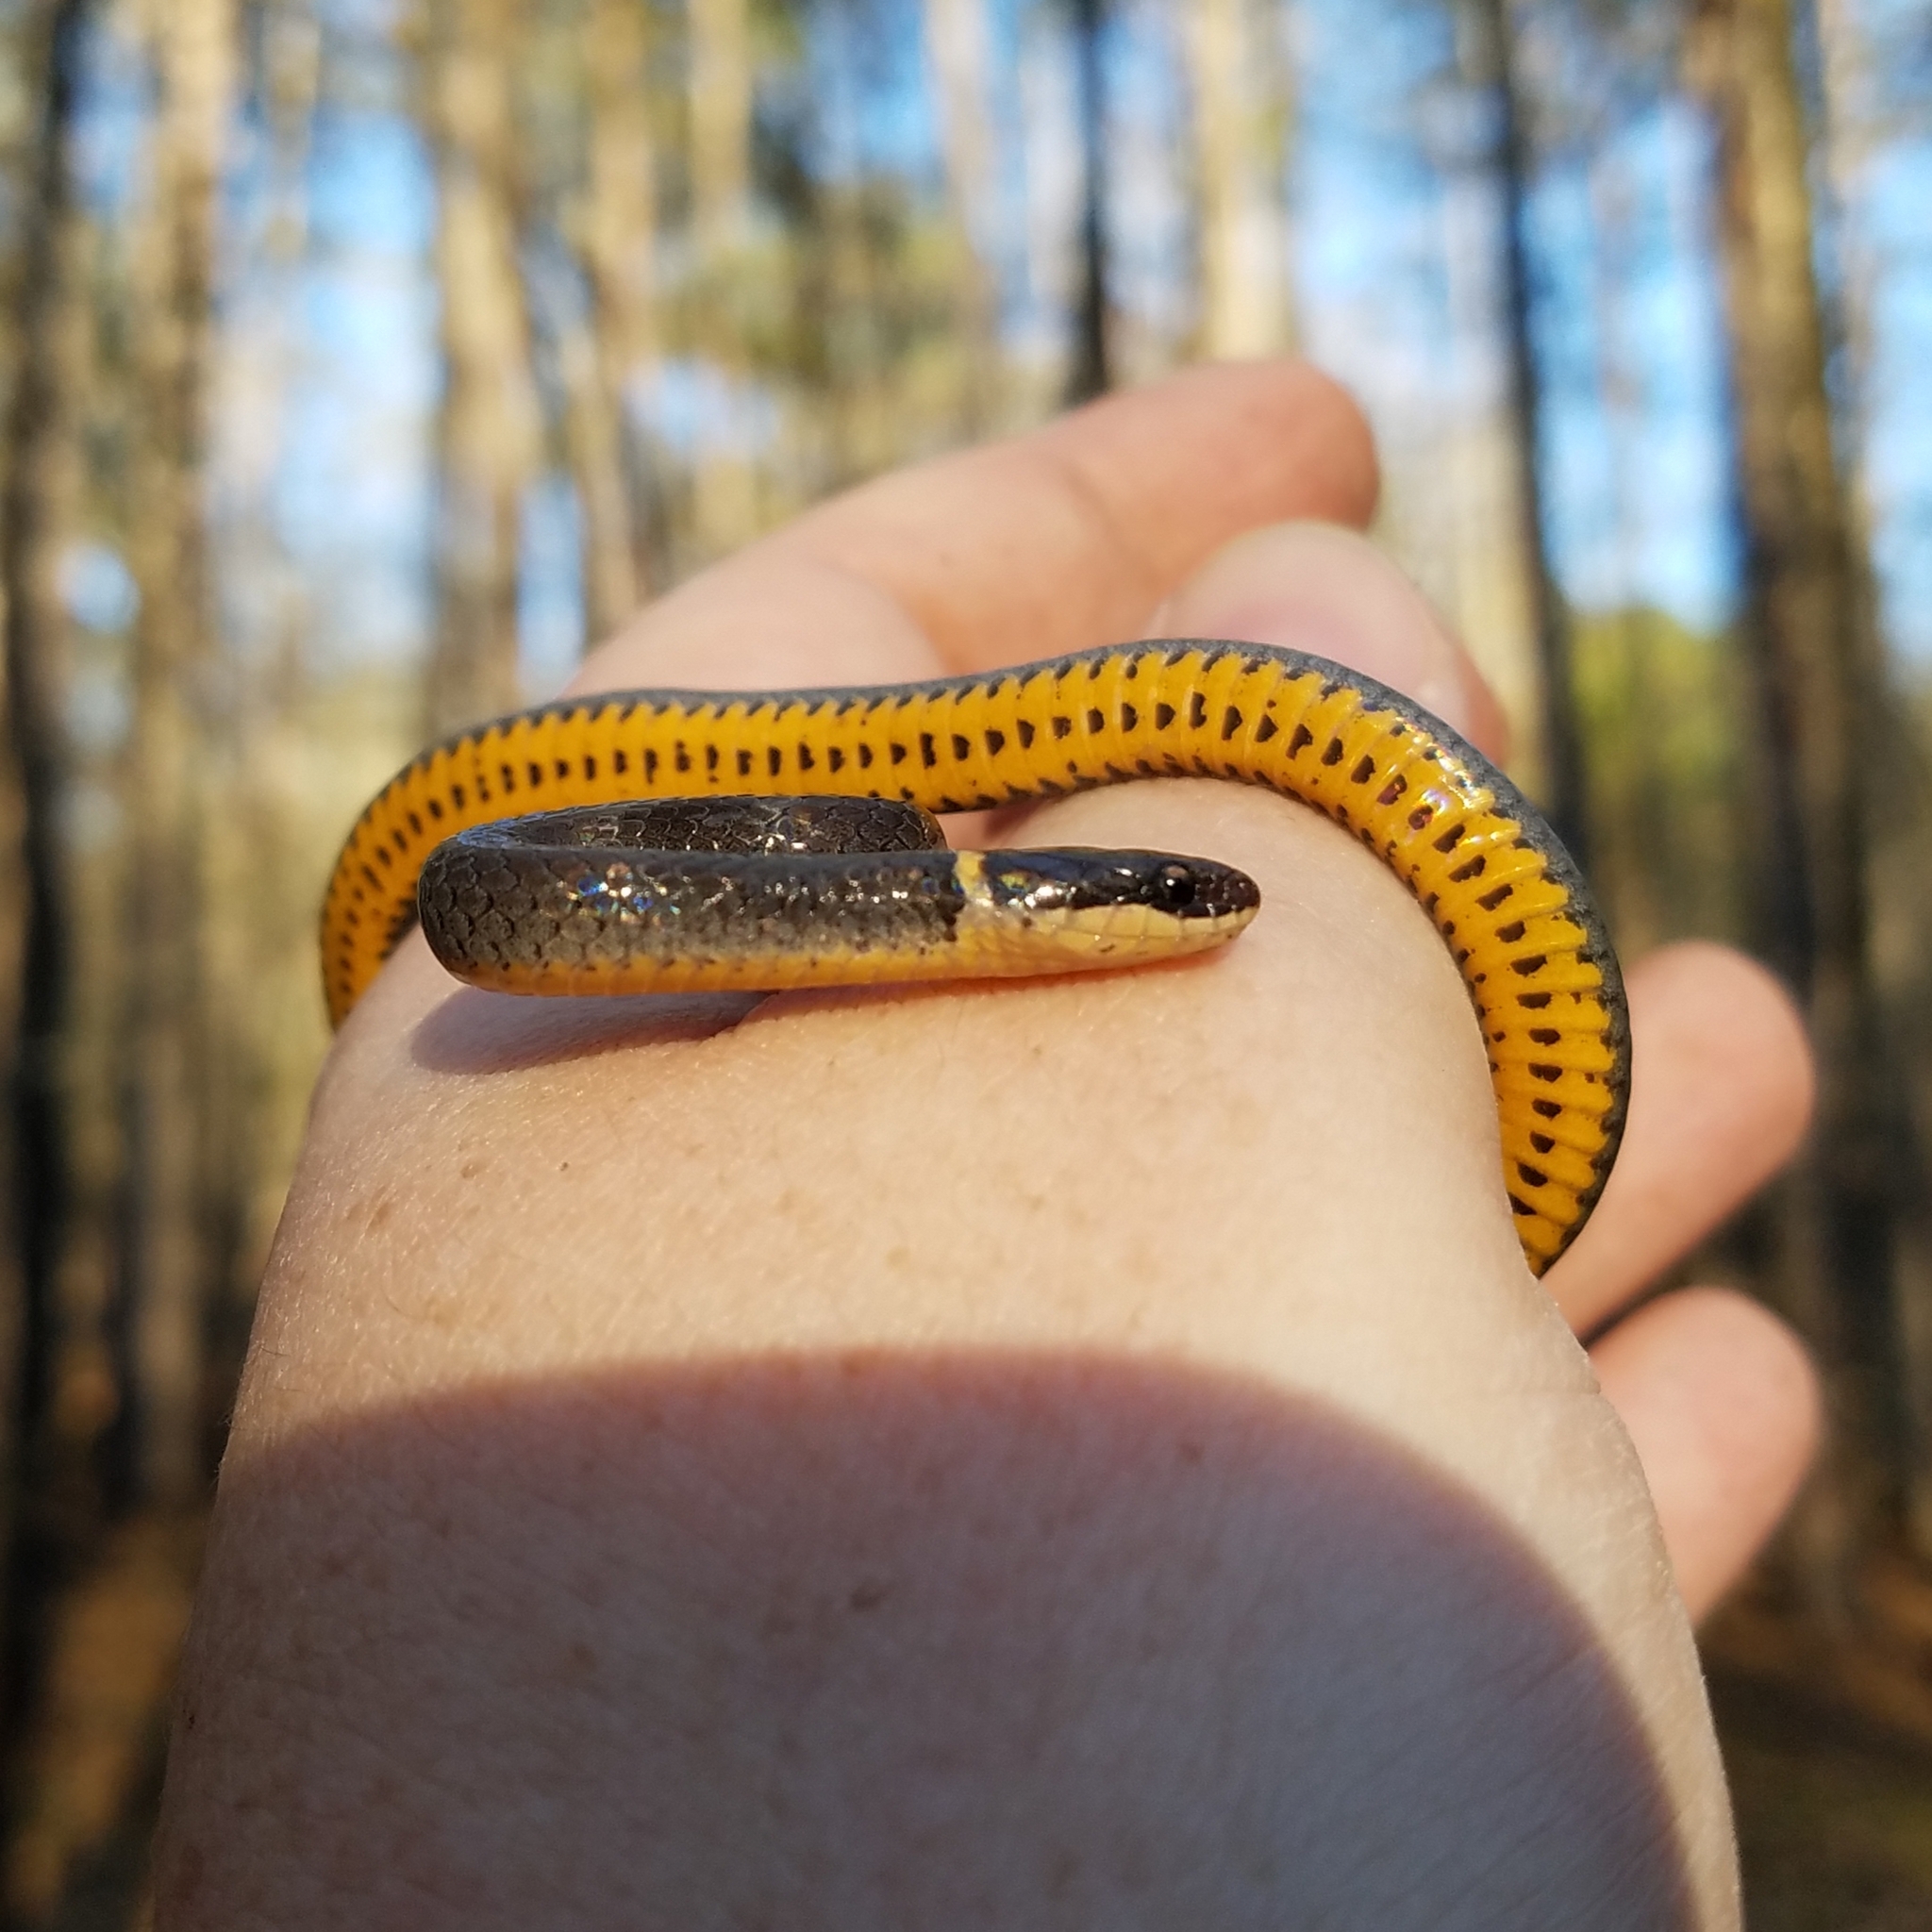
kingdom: Animalia
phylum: Chordata
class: Squamata
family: Colubridae
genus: Diadophis
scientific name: Diadophis punctatus
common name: Ringneck snake
